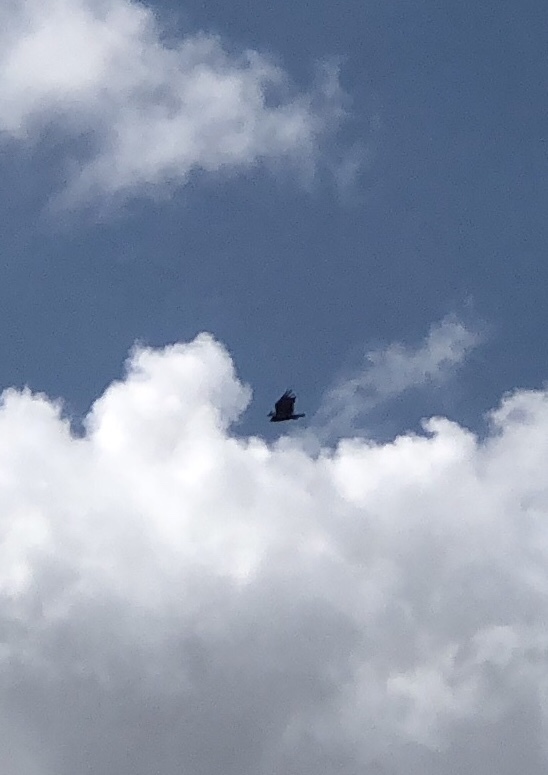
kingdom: Animalia
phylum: Chordata
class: Aves
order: Accipitriformes
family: Cathartidae
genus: Cathartes
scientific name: Cathartes aura
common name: Turkey vulture
